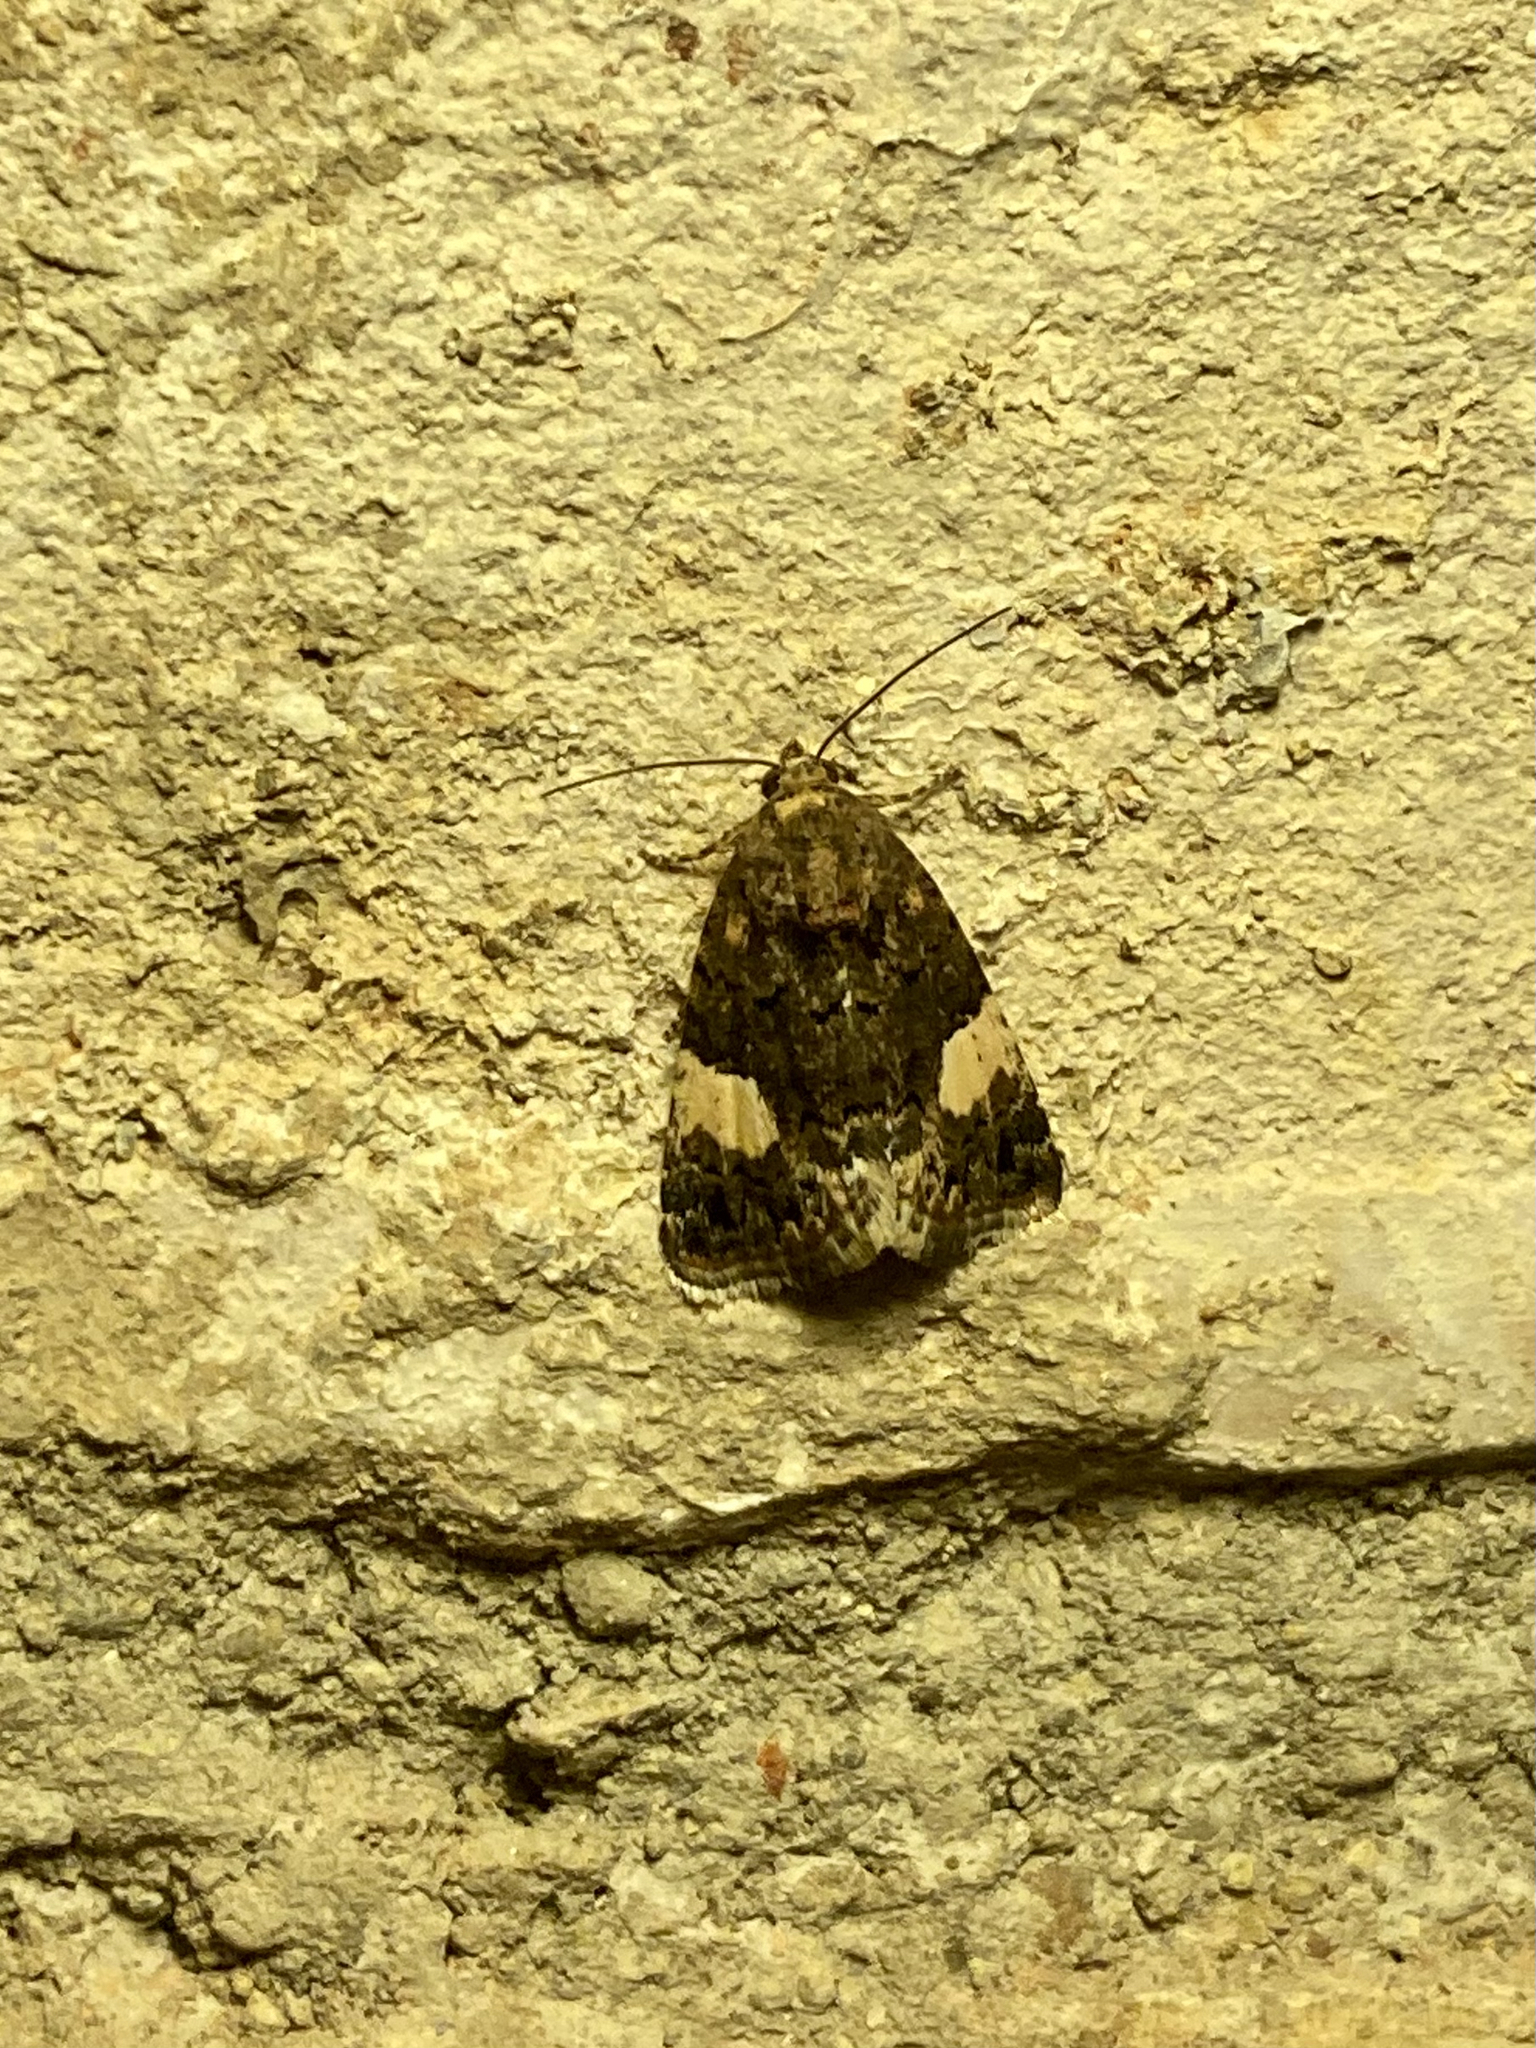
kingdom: Animalia
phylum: Arthropoda
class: Insecta
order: Lepidoptera
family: Erebidae
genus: Tyta
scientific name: Tyta luctuosa
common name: Four-spotted
